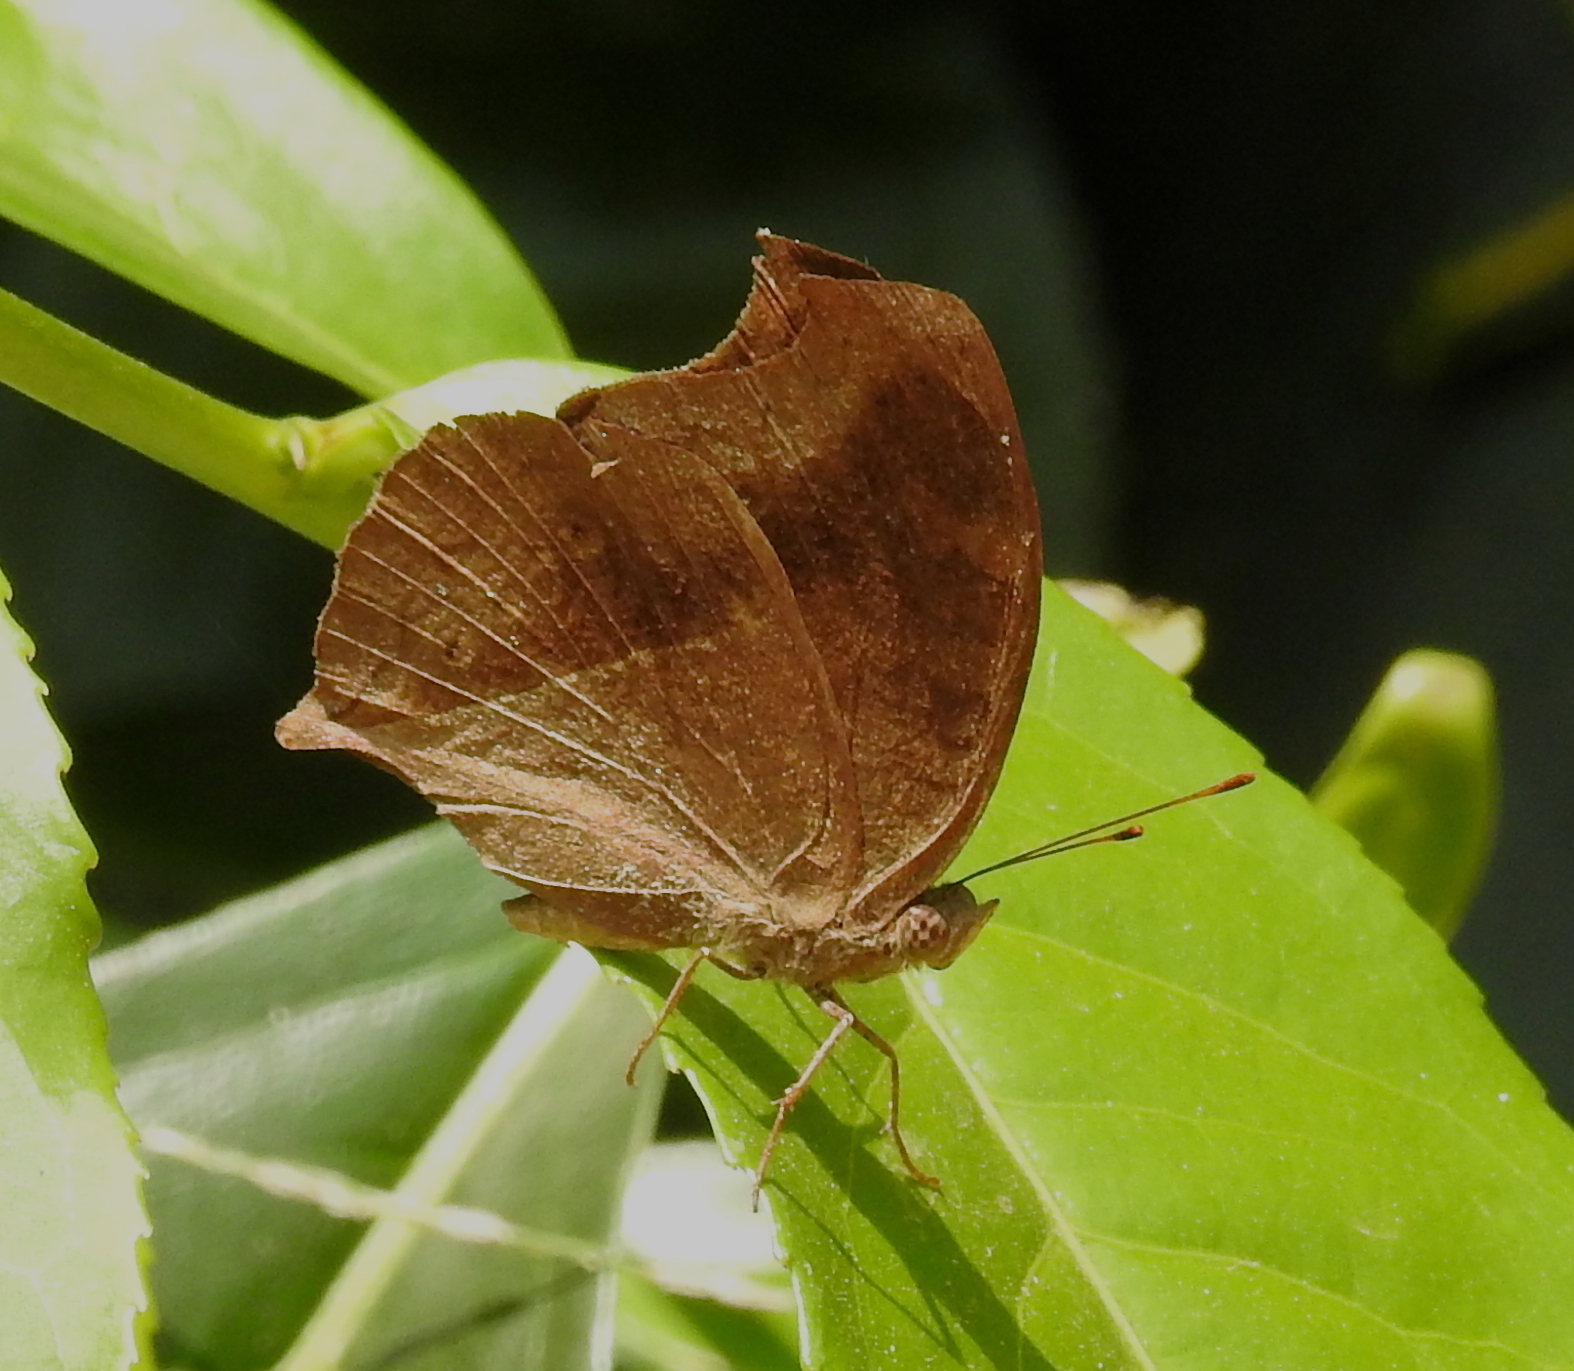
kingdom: Animalia
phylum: Arthropoda
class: Insecta
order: Lepidoptera
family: Nymphalidae
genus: Junonia
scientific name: Junonia iphita
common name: Chocolate pansy
